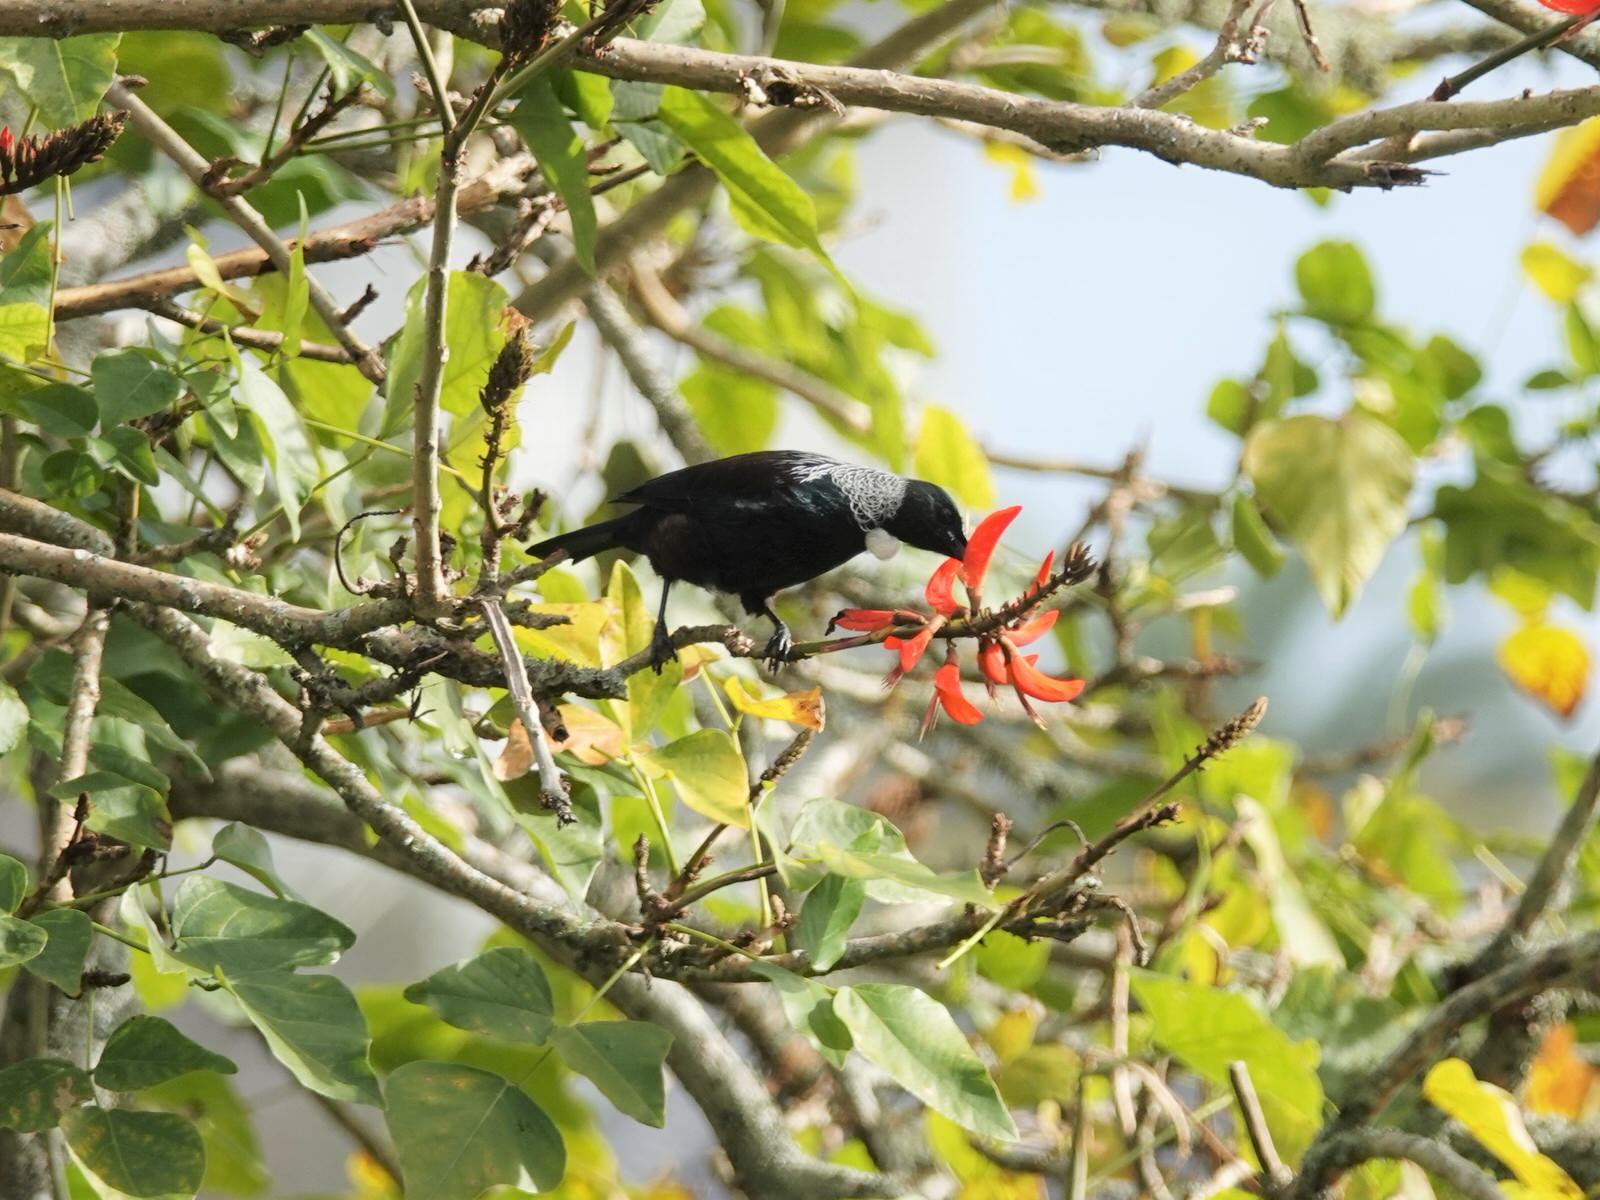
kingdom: Animalia
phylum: Chordata
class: Aves
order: Passeriformes
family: Meliphagidae
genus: Prosthemadera
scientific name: Prosthemadera novaeseelandiae
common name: Tui
